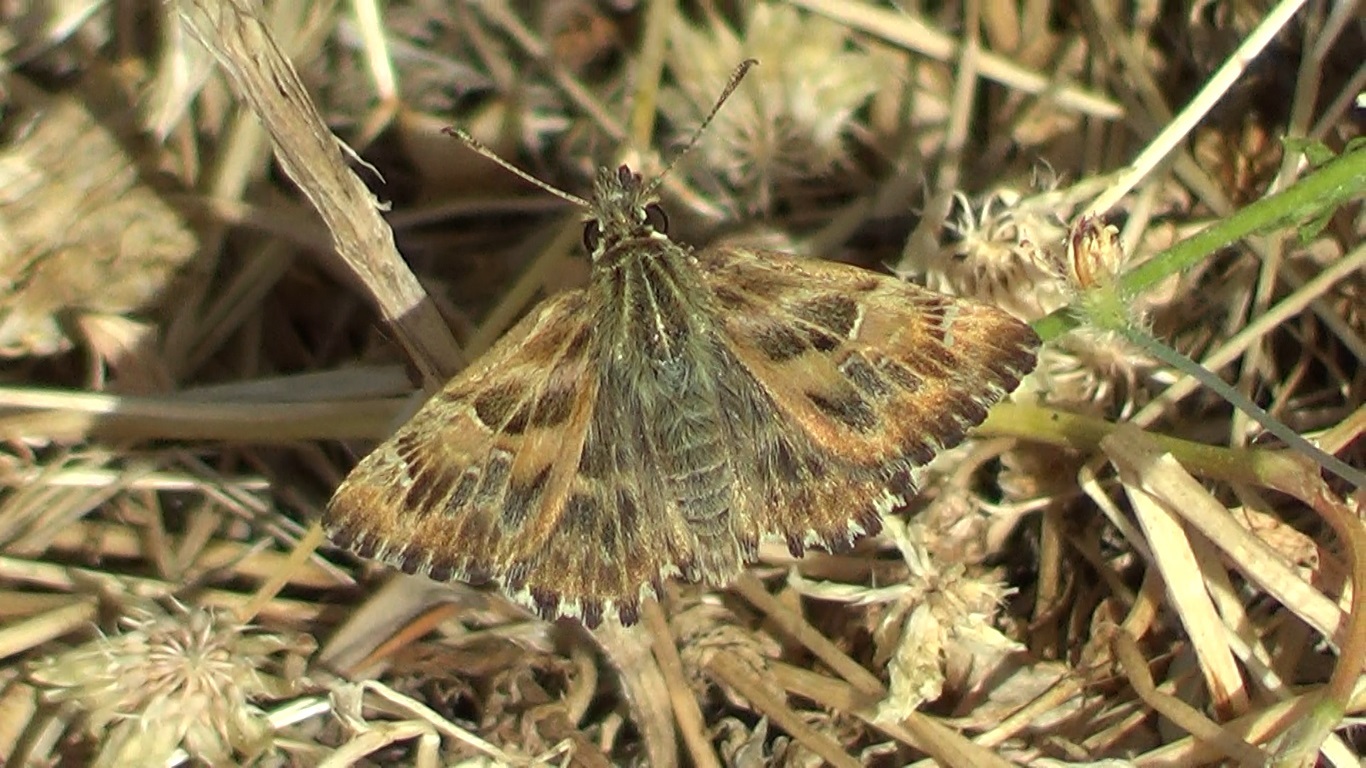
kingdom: Animalia
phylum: Arthropoda
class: Insecta
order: Lepidoptera
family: Hesperiidae
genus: Carcharodus
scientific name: Carcharodus alceae
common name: Mallow skipper
